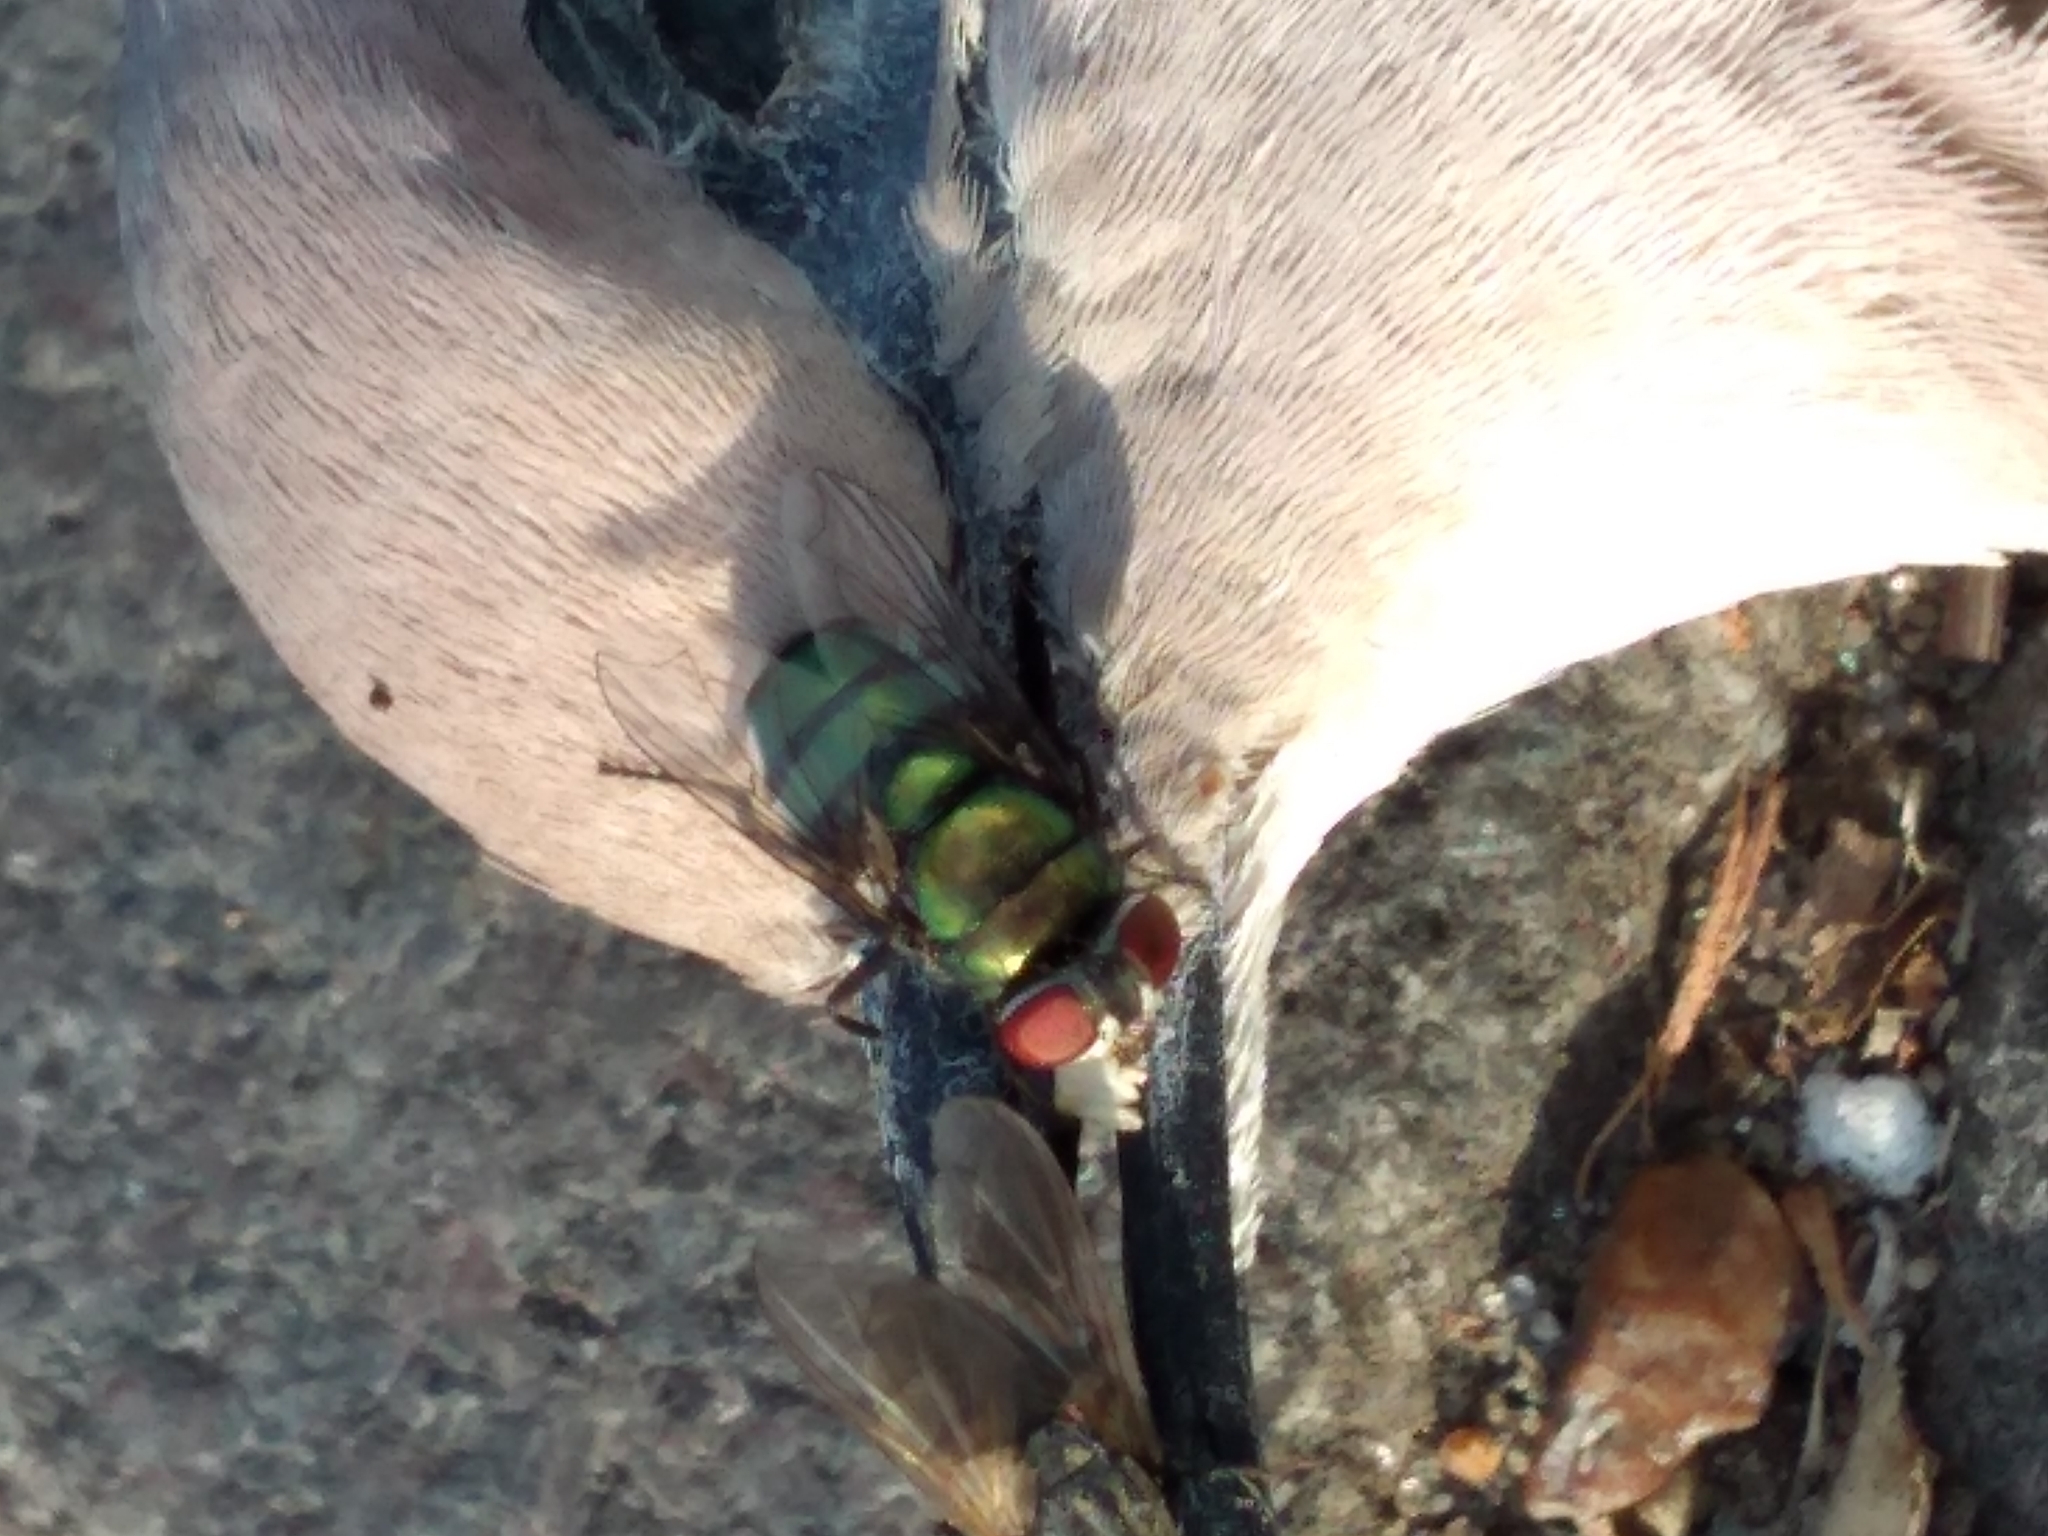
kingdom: Animalia
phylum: Arthropoda
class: Insecta
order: Diptera
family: Calliphoridae
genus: Chrysomya
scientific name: Chrysomya
